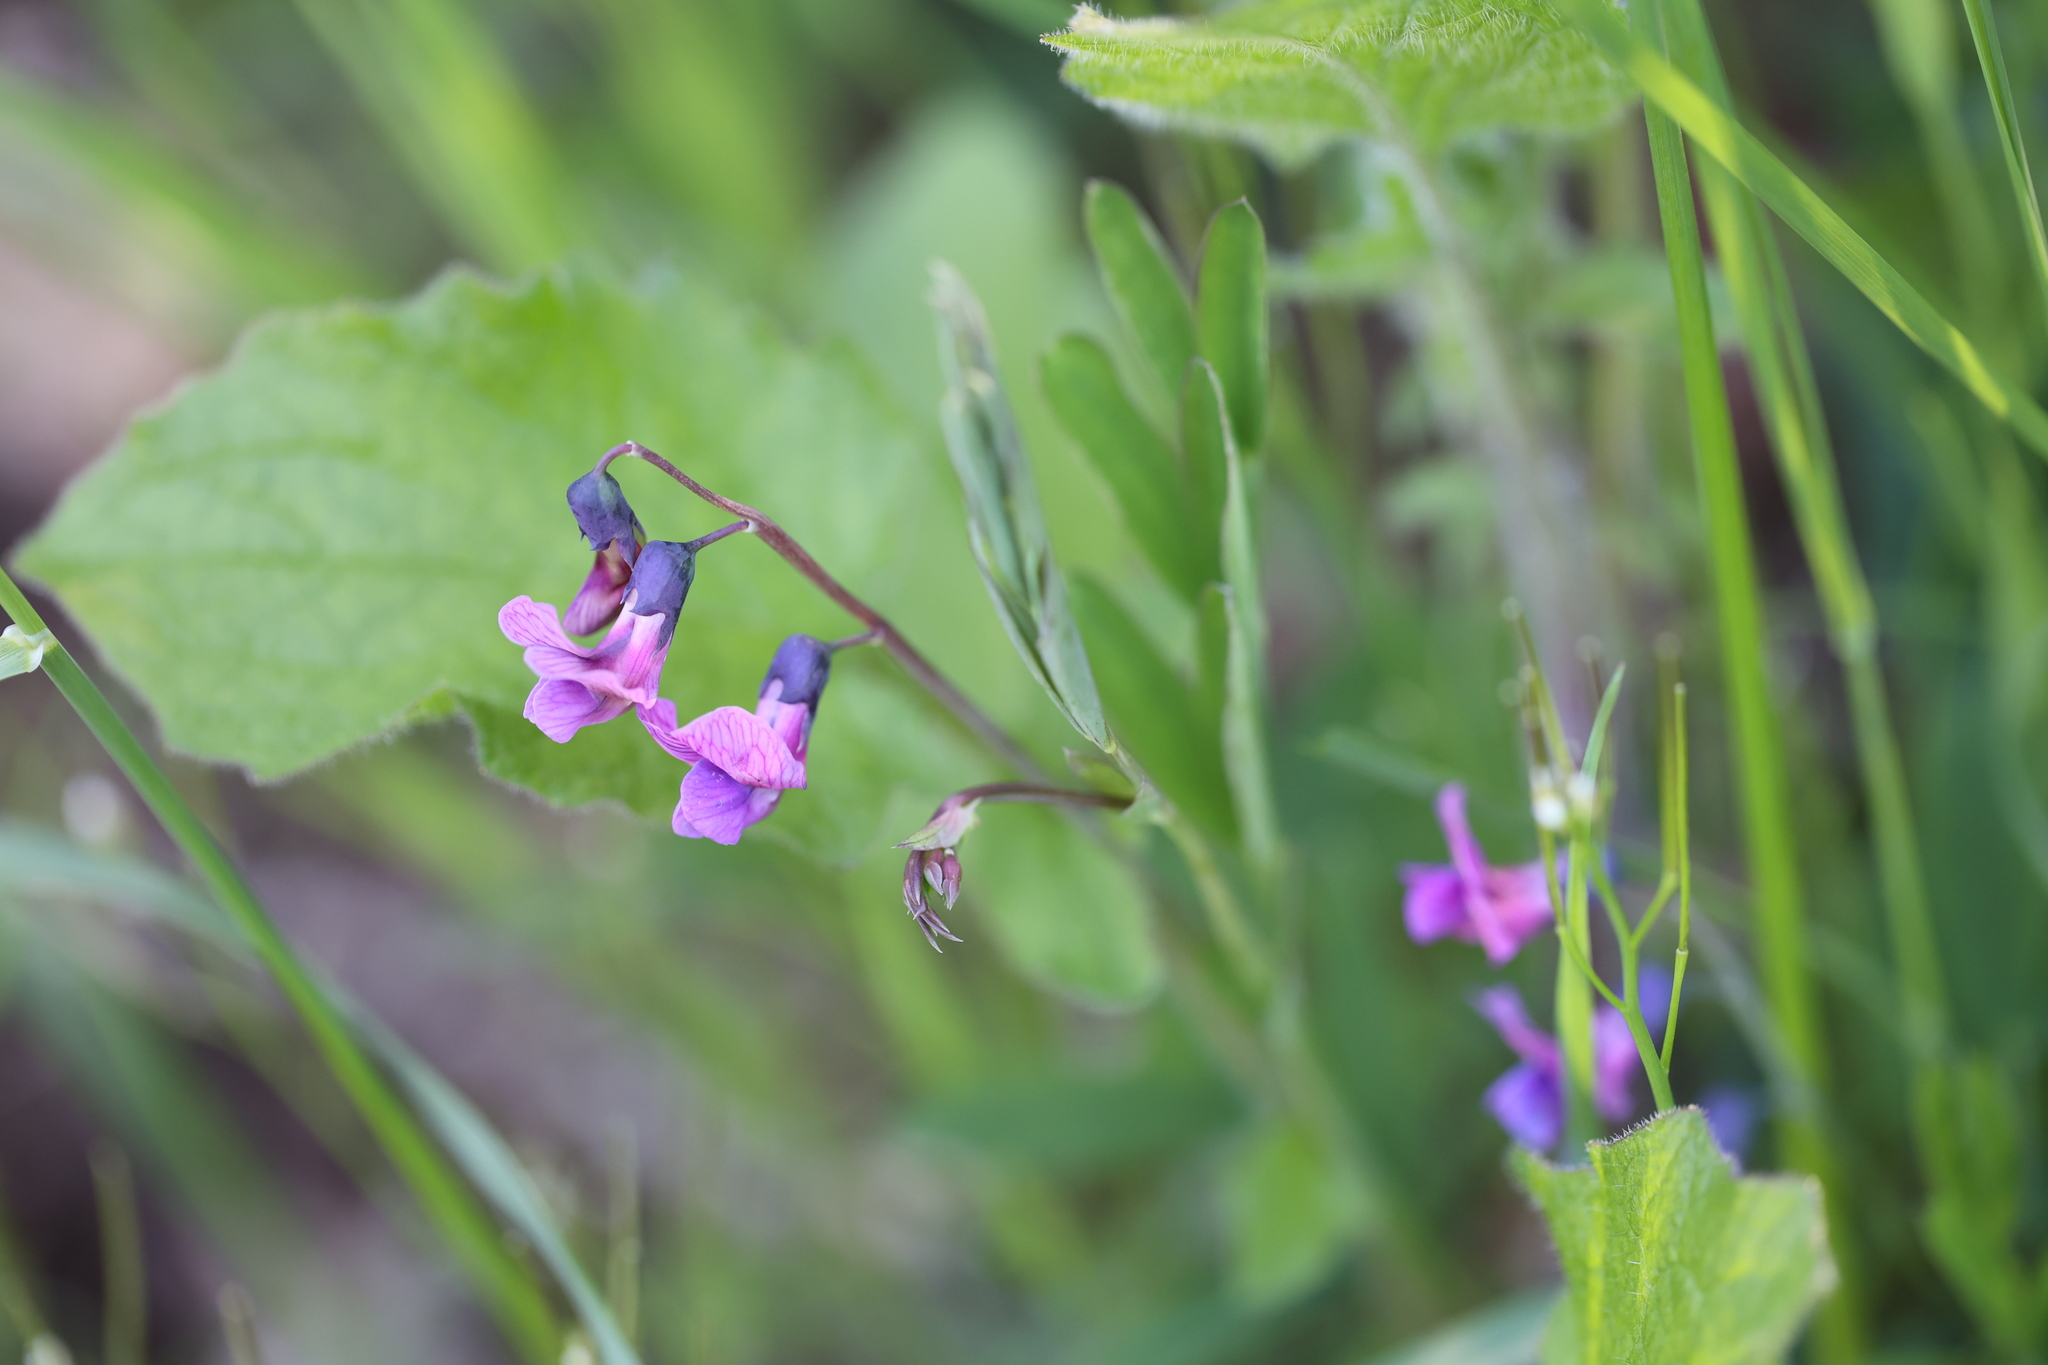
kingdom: Plantae
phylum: Tracheophyta
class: Magnoliopsida
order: Fabales
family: Fabaceae
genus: Lathyrus
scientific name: Lathyrus linifolius
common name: Bitter-vetch
